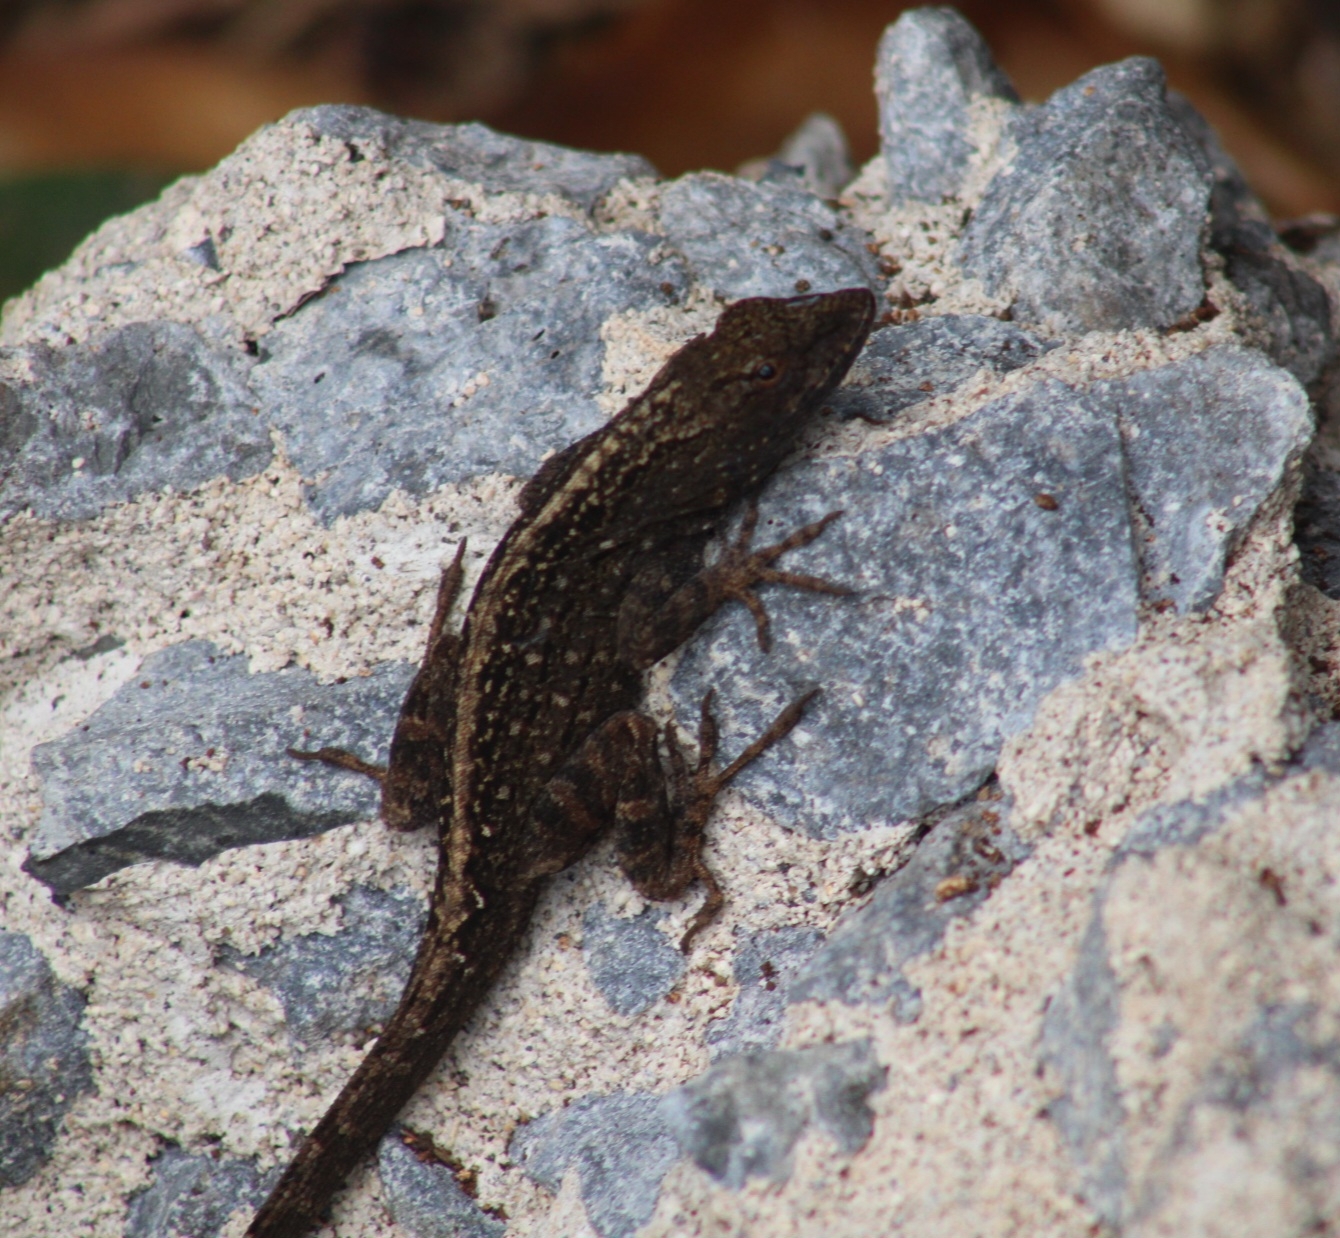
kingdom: Animalia
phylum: Chordata
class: Squamata
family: Dactyloidae
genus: Anolis
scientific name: Anolis sagrei
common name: Brown anole
